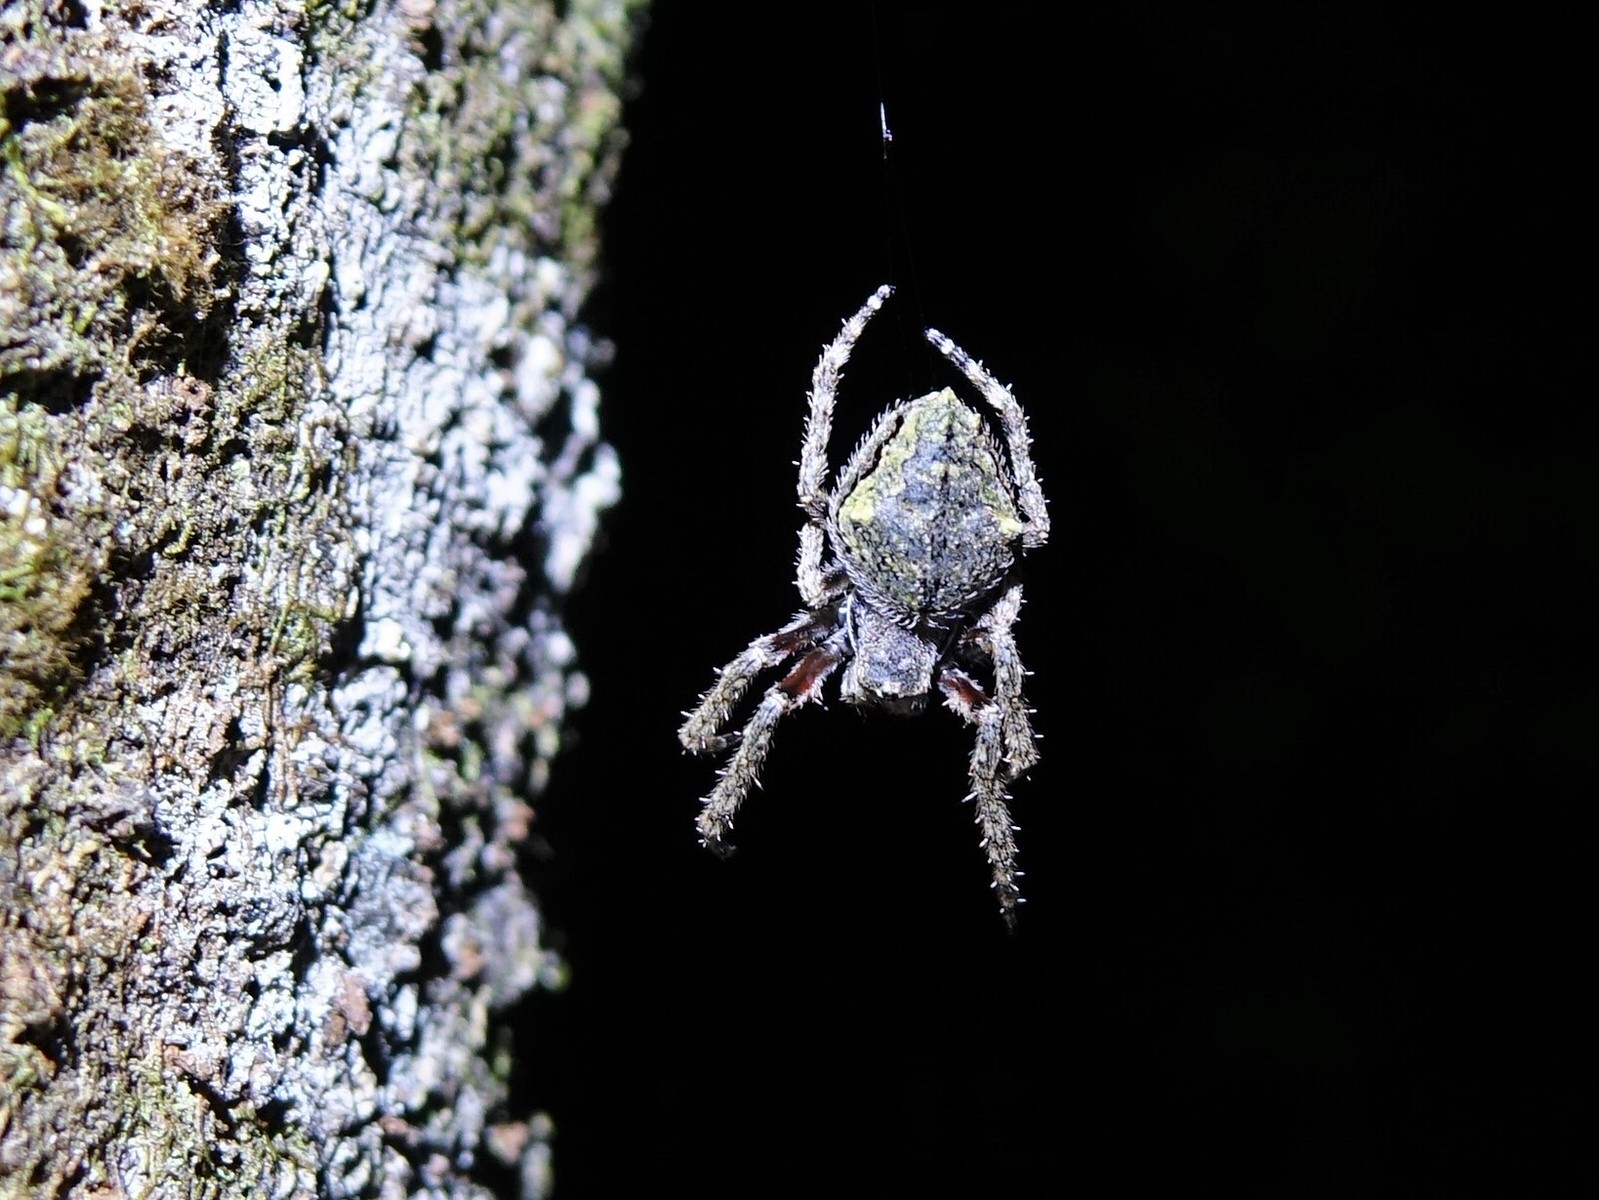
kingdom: Animalia
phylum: Arthropoda
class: Arachnida
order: Araneae
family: Araneidae
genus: Eriophora
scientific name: Eriophora pustulosa
